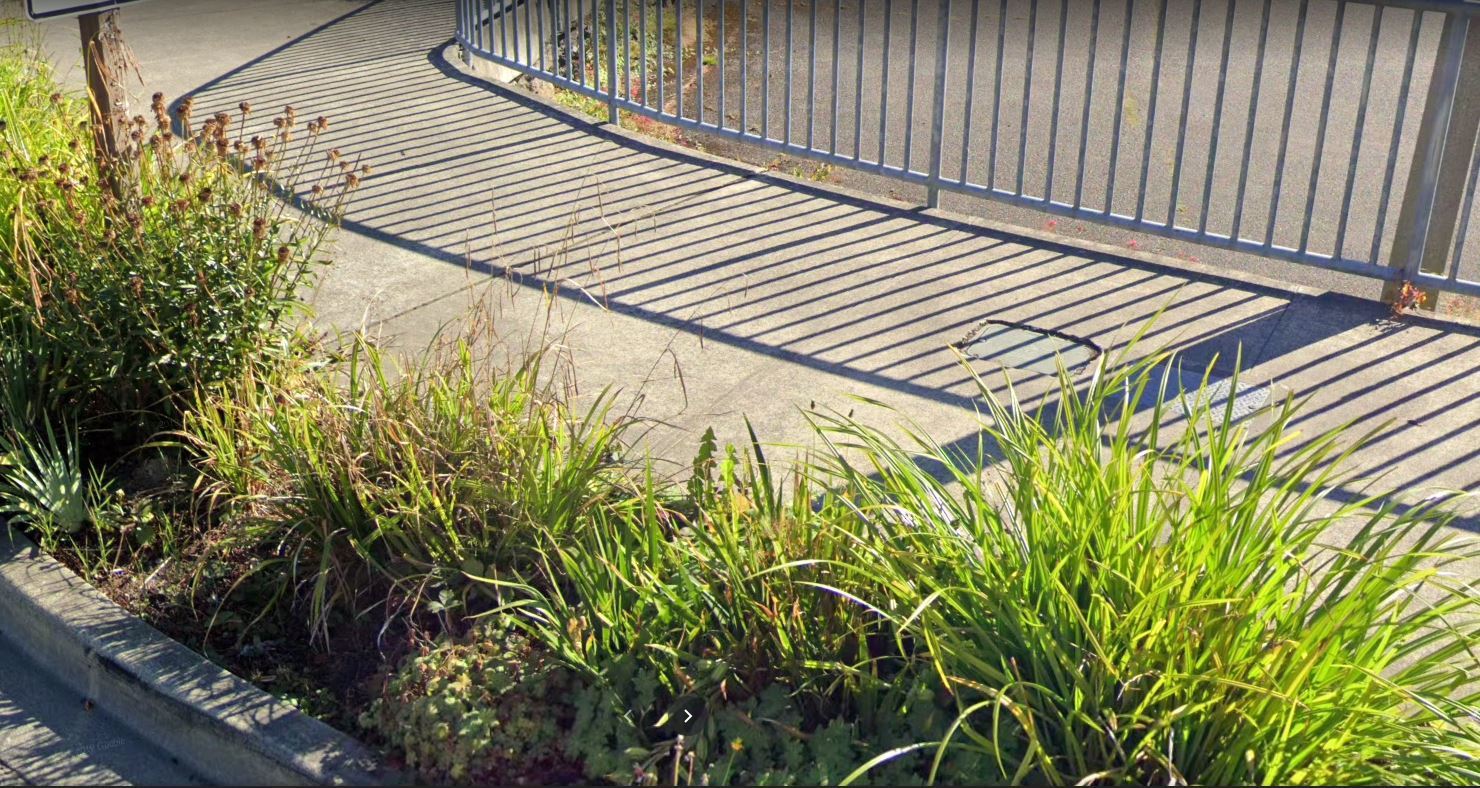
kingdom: Plantae
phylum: Tracheophyta
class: Liliopsida
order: Poales
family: Cyperaceae
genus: Carex
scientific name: Carex pendula
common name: Pendulous sedge
